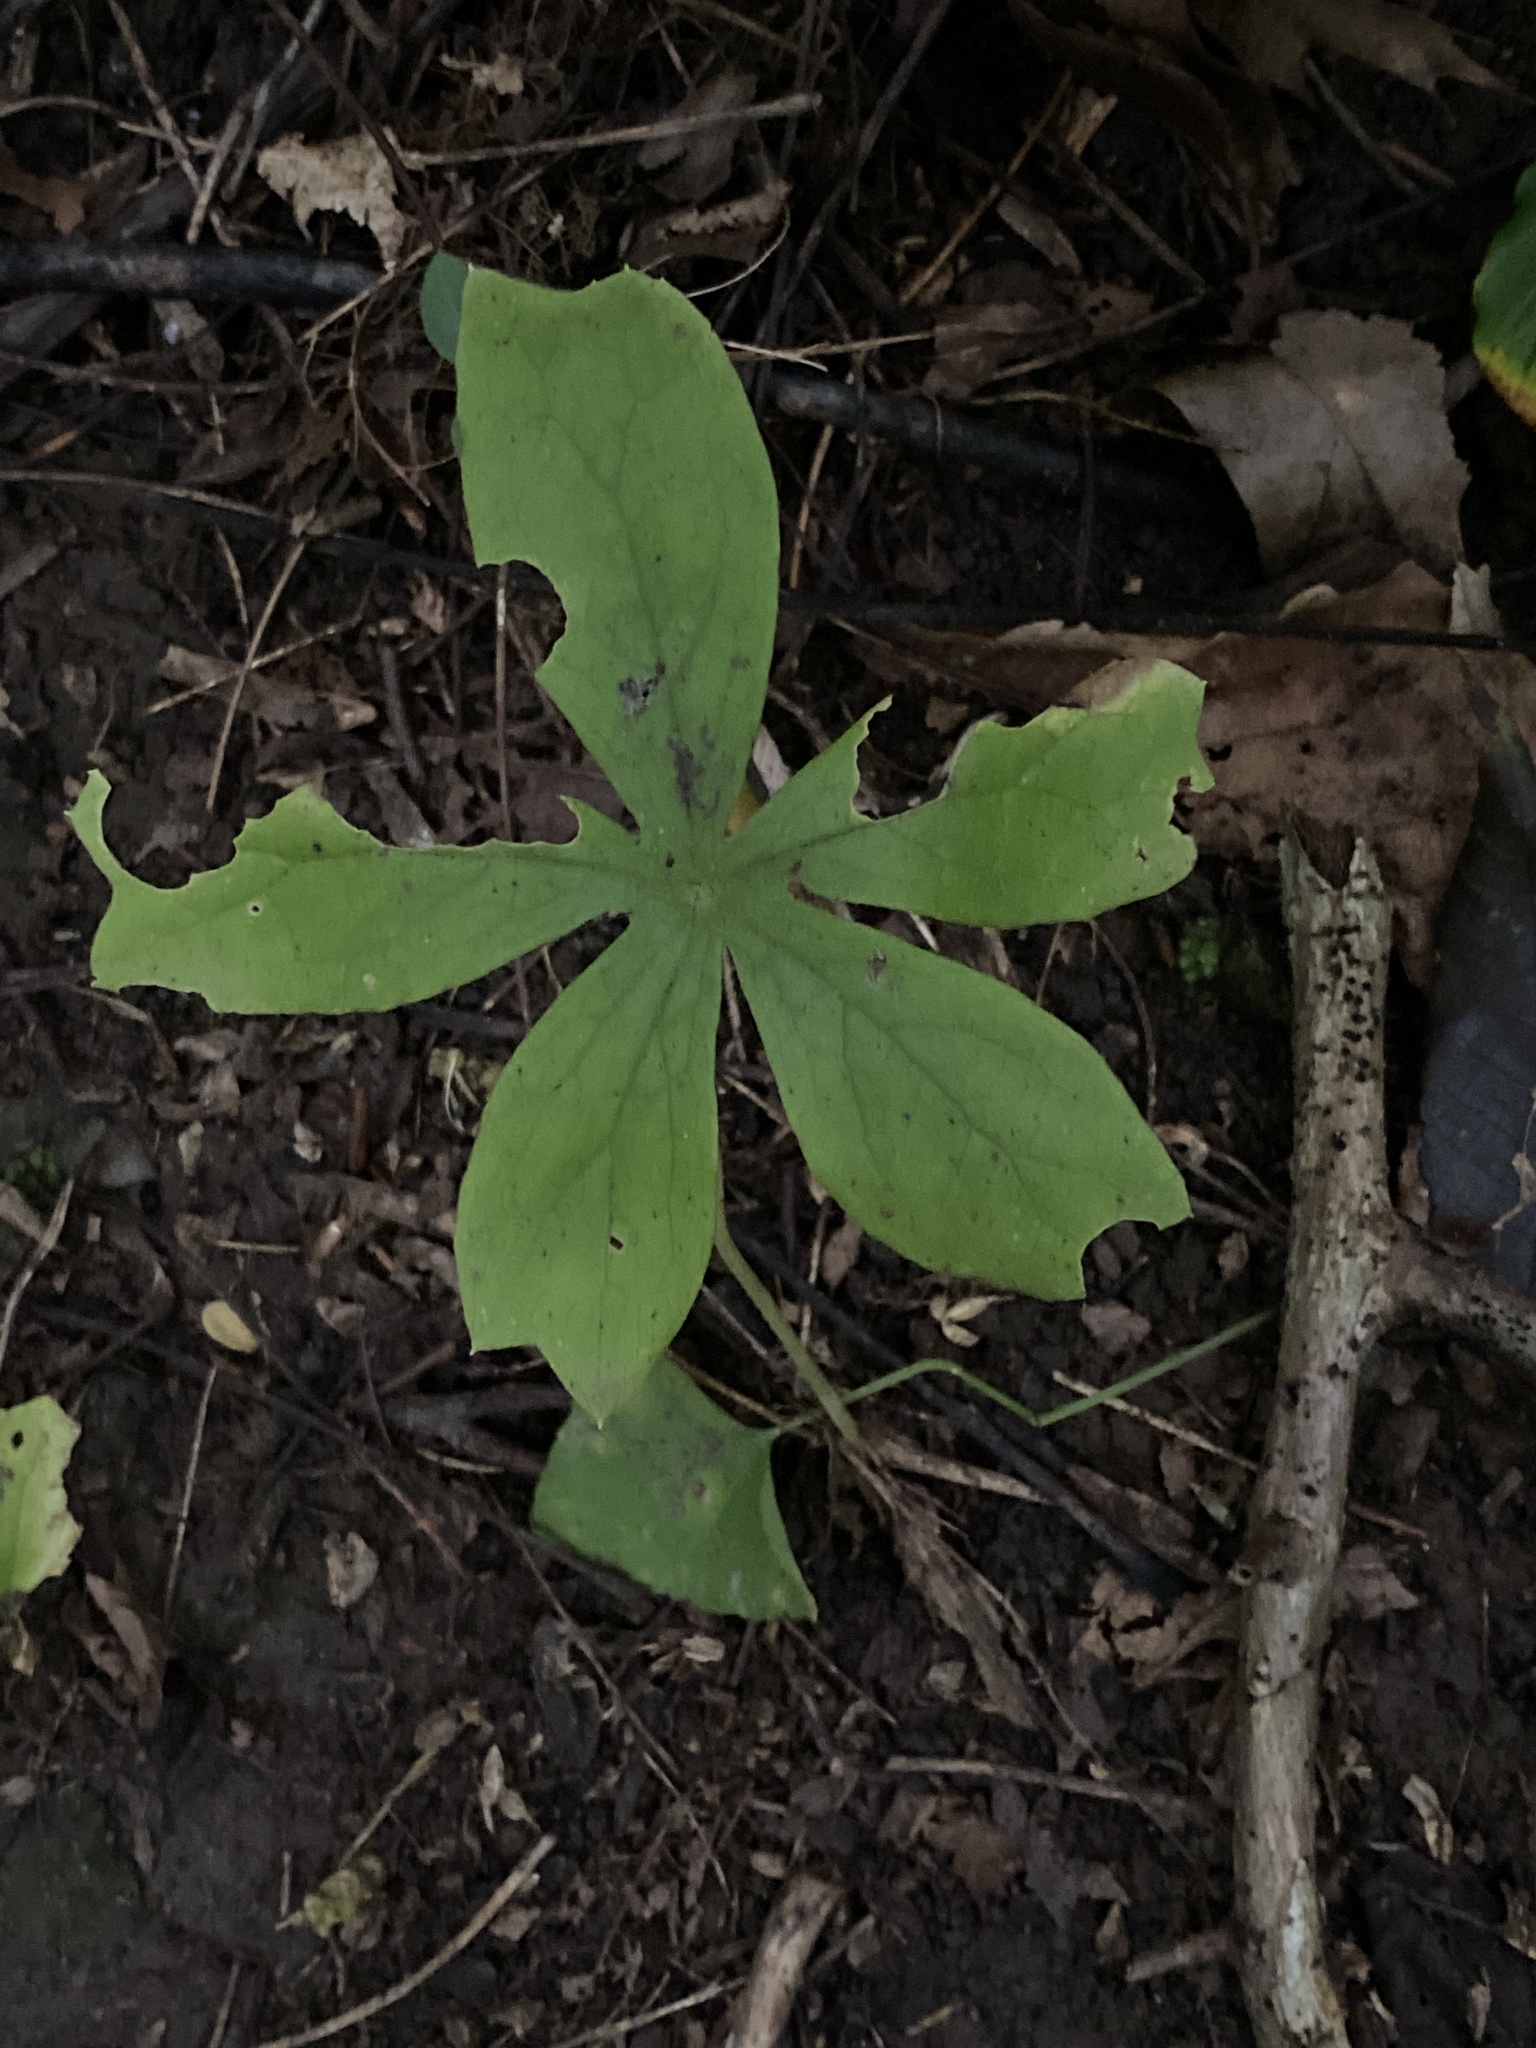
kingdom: Plantae
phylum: Tracheophyta
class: Magnoliopsida
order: Ranunculales
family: Berberidaceae
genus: Podophyllum
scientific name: Podophyllum peltatum
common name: Wild mandrake
